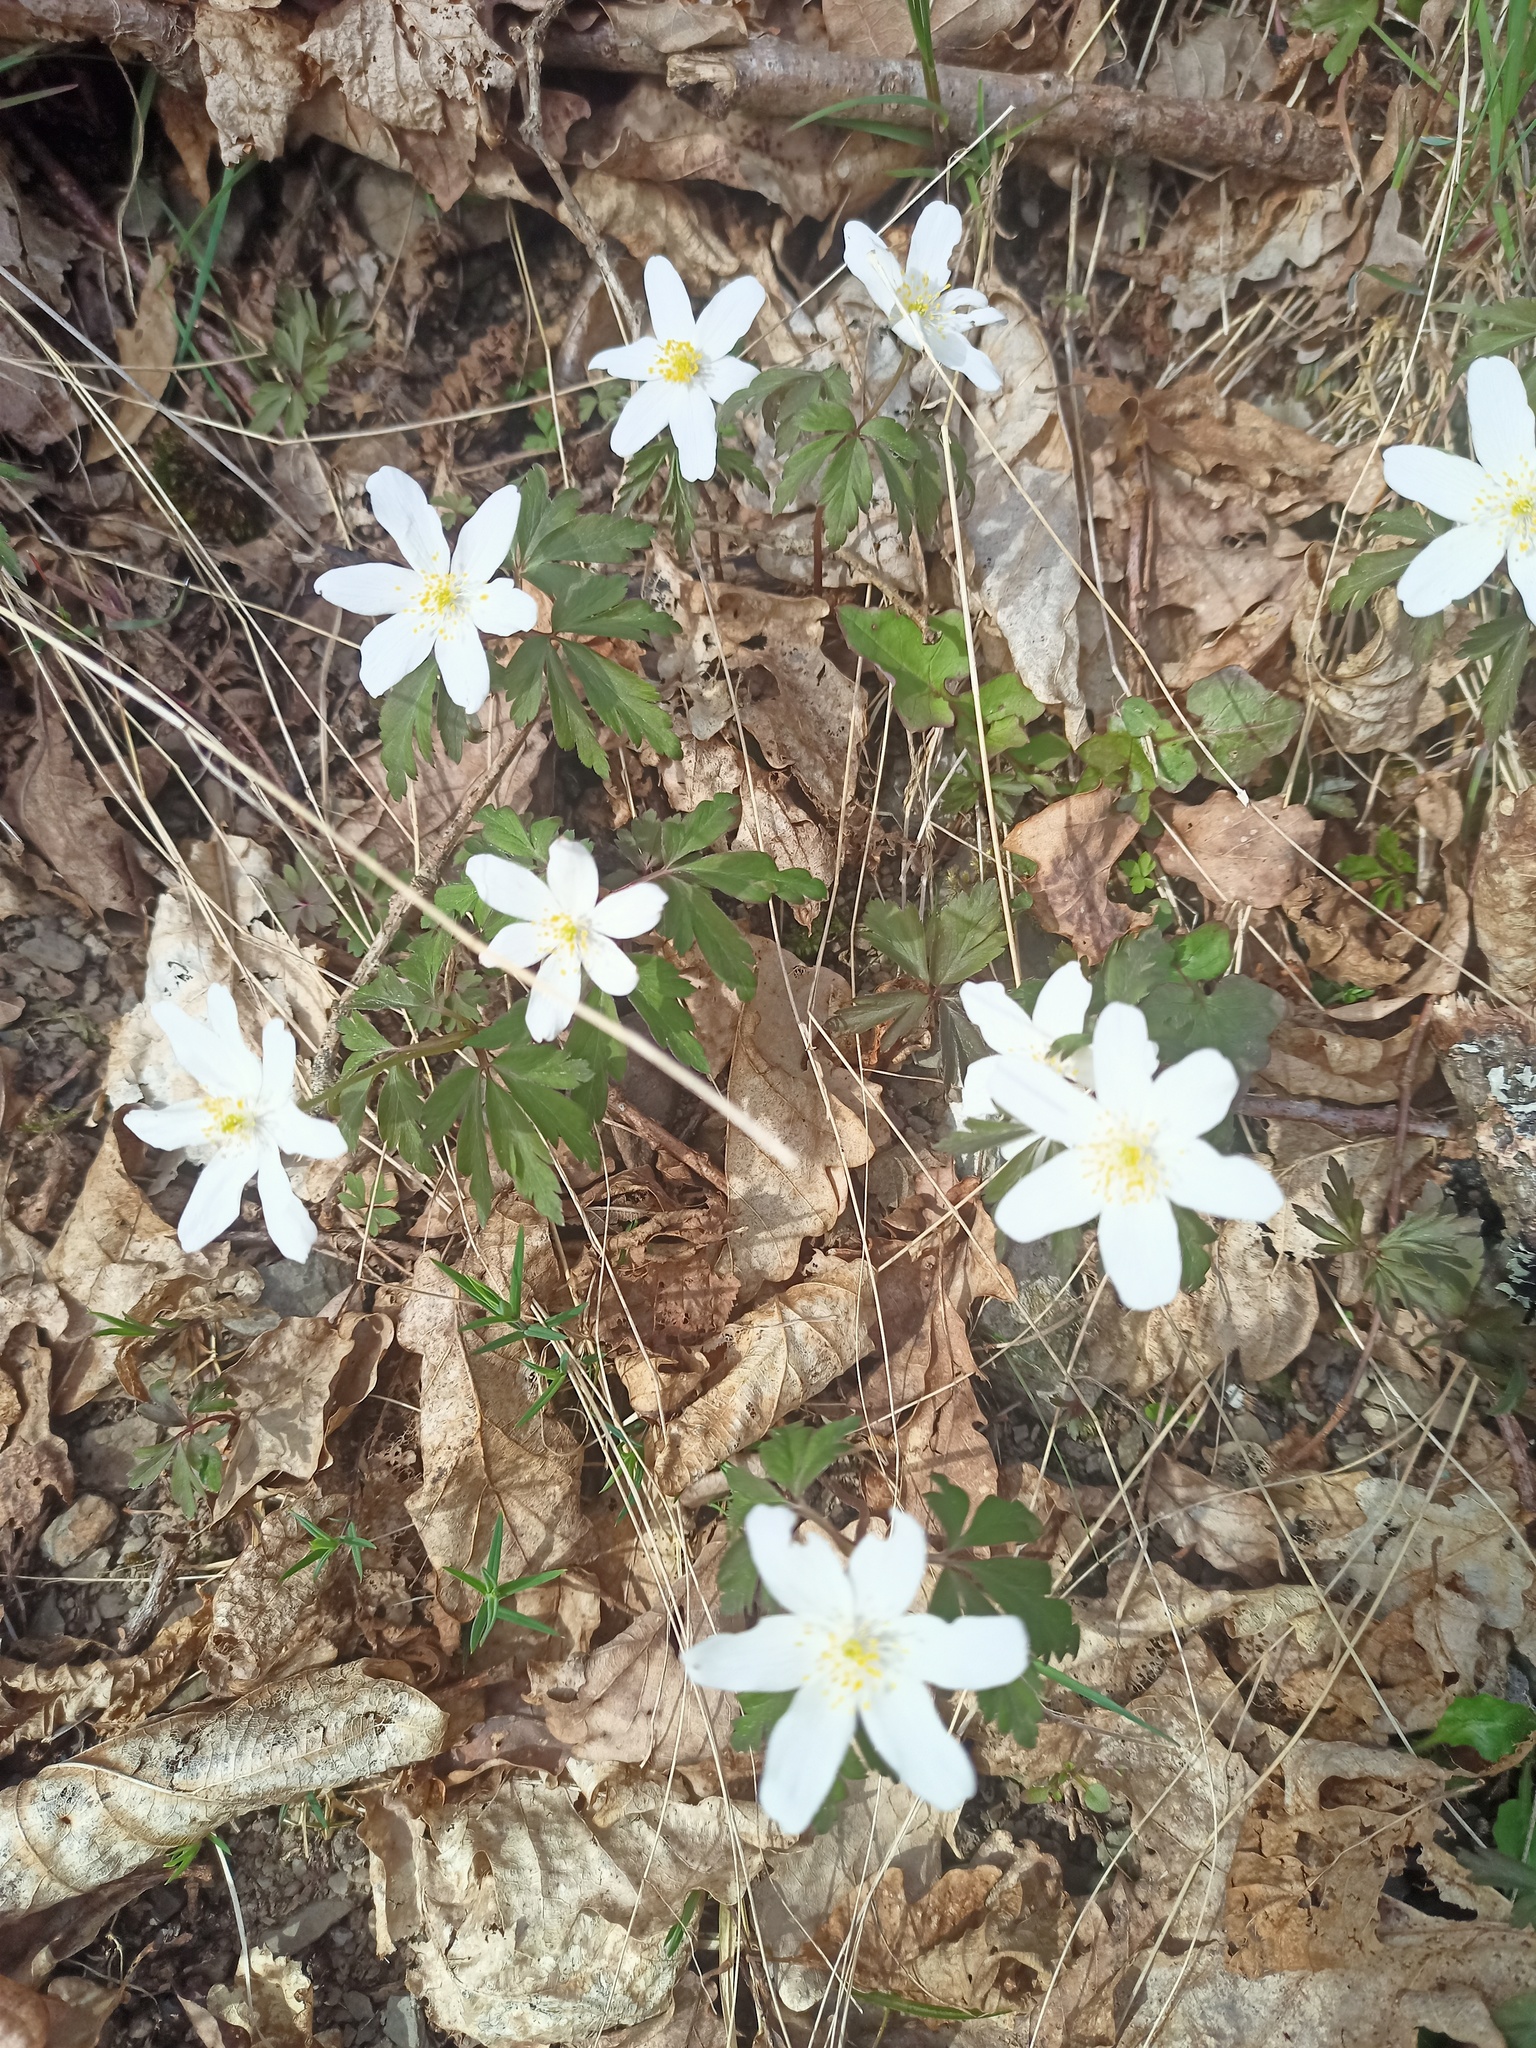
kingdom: Plantae
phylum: Tracheophyta
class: Magnoliopsida
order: Ranunculales
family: Ranunculaceae
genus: Anemone
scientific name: Anemone nemorosa
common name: Wood anemone
